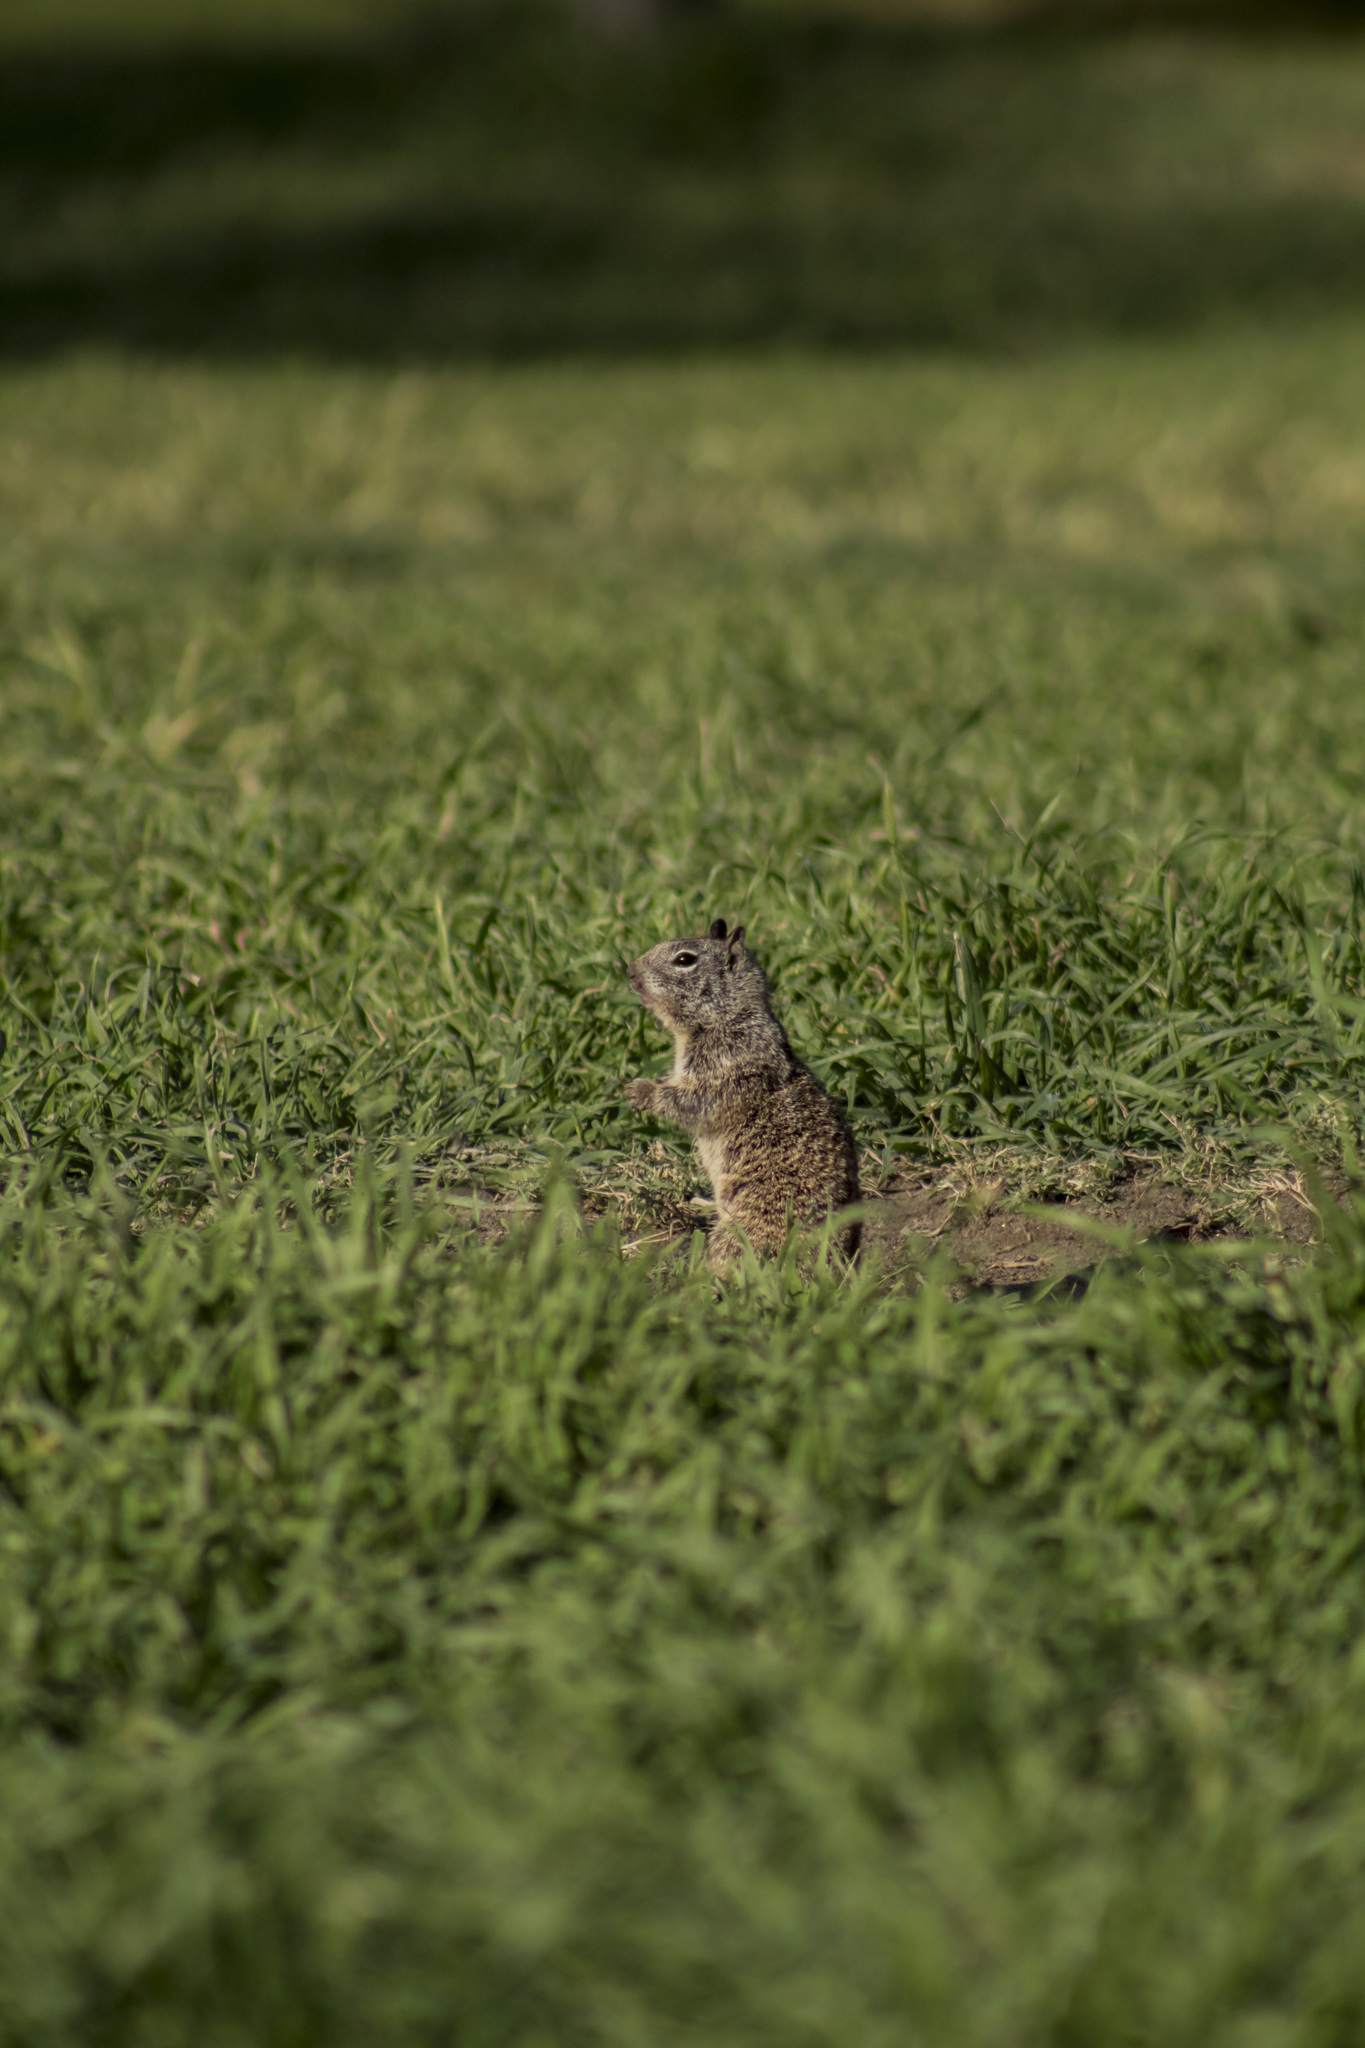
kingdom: Animalia
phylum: Chordata
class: Mammalia
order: Rodentia
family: Sciuridae
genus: Otospermophilus
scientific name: Otospermophilus beecheyi
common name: California ground squirrel
